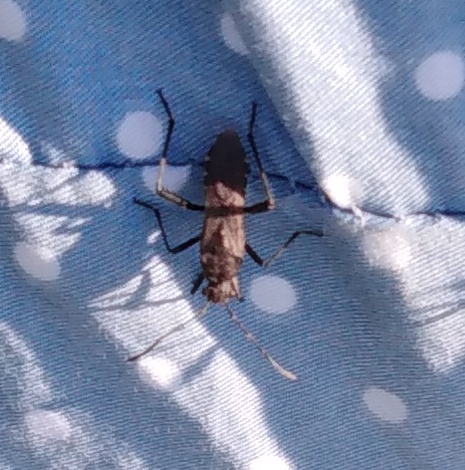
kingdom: Animalia
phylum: Arthropoda
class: Insecta
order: Hemiptera
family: Alydidae
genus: Alydus
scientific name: Alydus calcaratus
